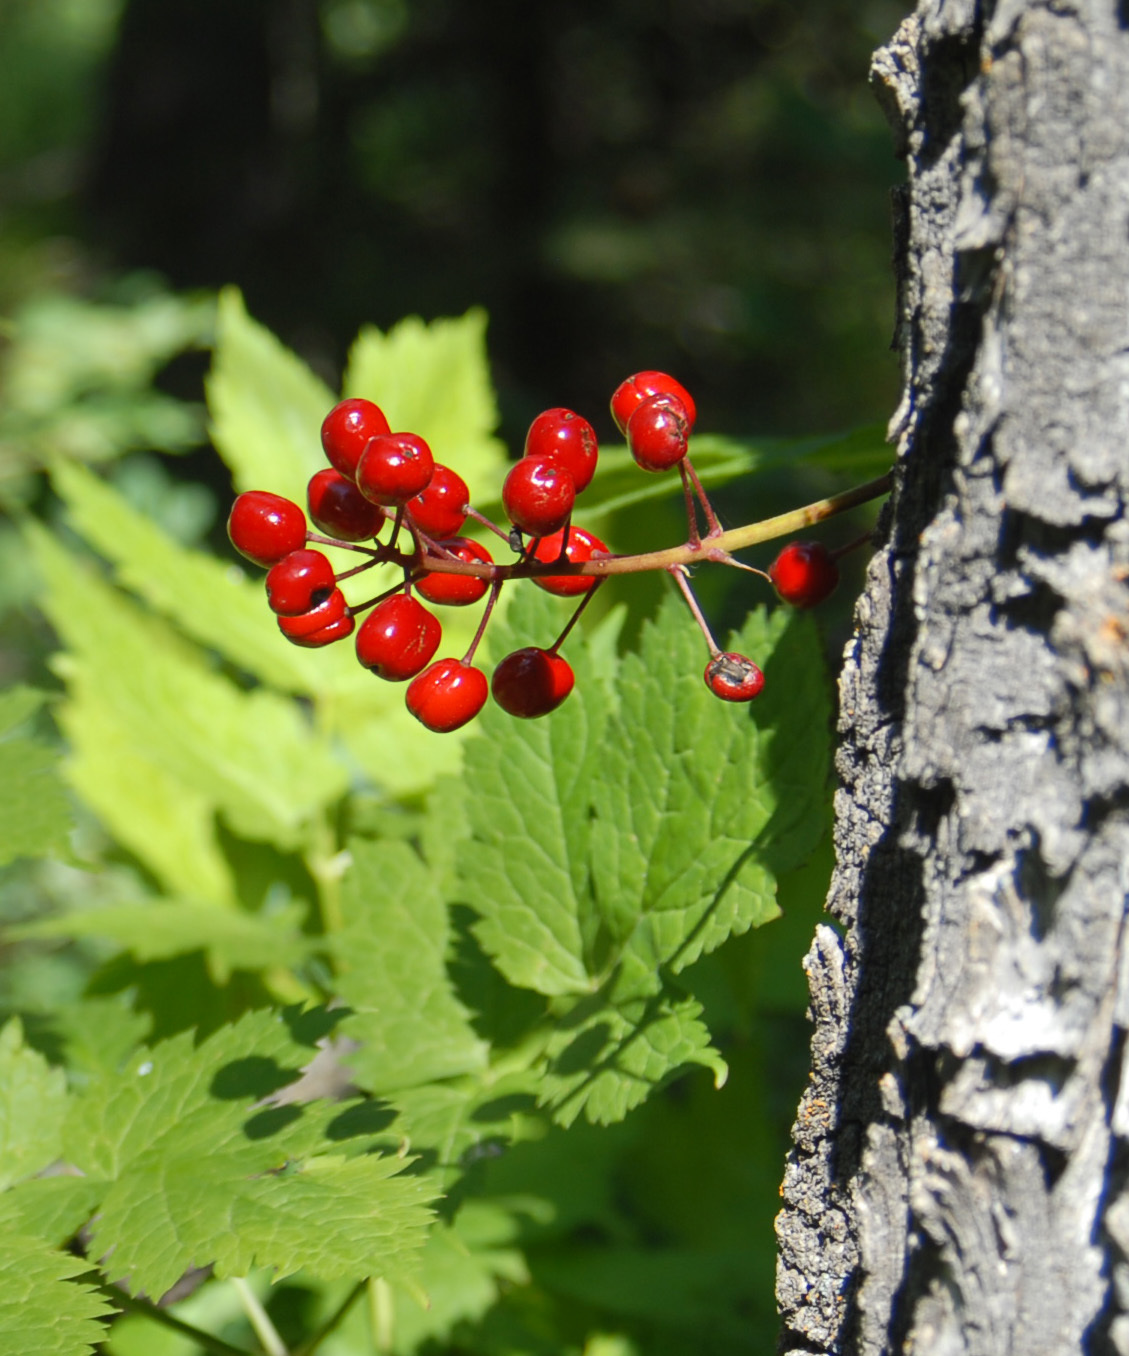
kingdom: Plantae
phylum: Tracheophyta
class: Magnoliopsida
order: Ranunculales
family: Ranunculaceae
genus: Actaea
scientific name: Actaea rubra
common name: Red baneberry
